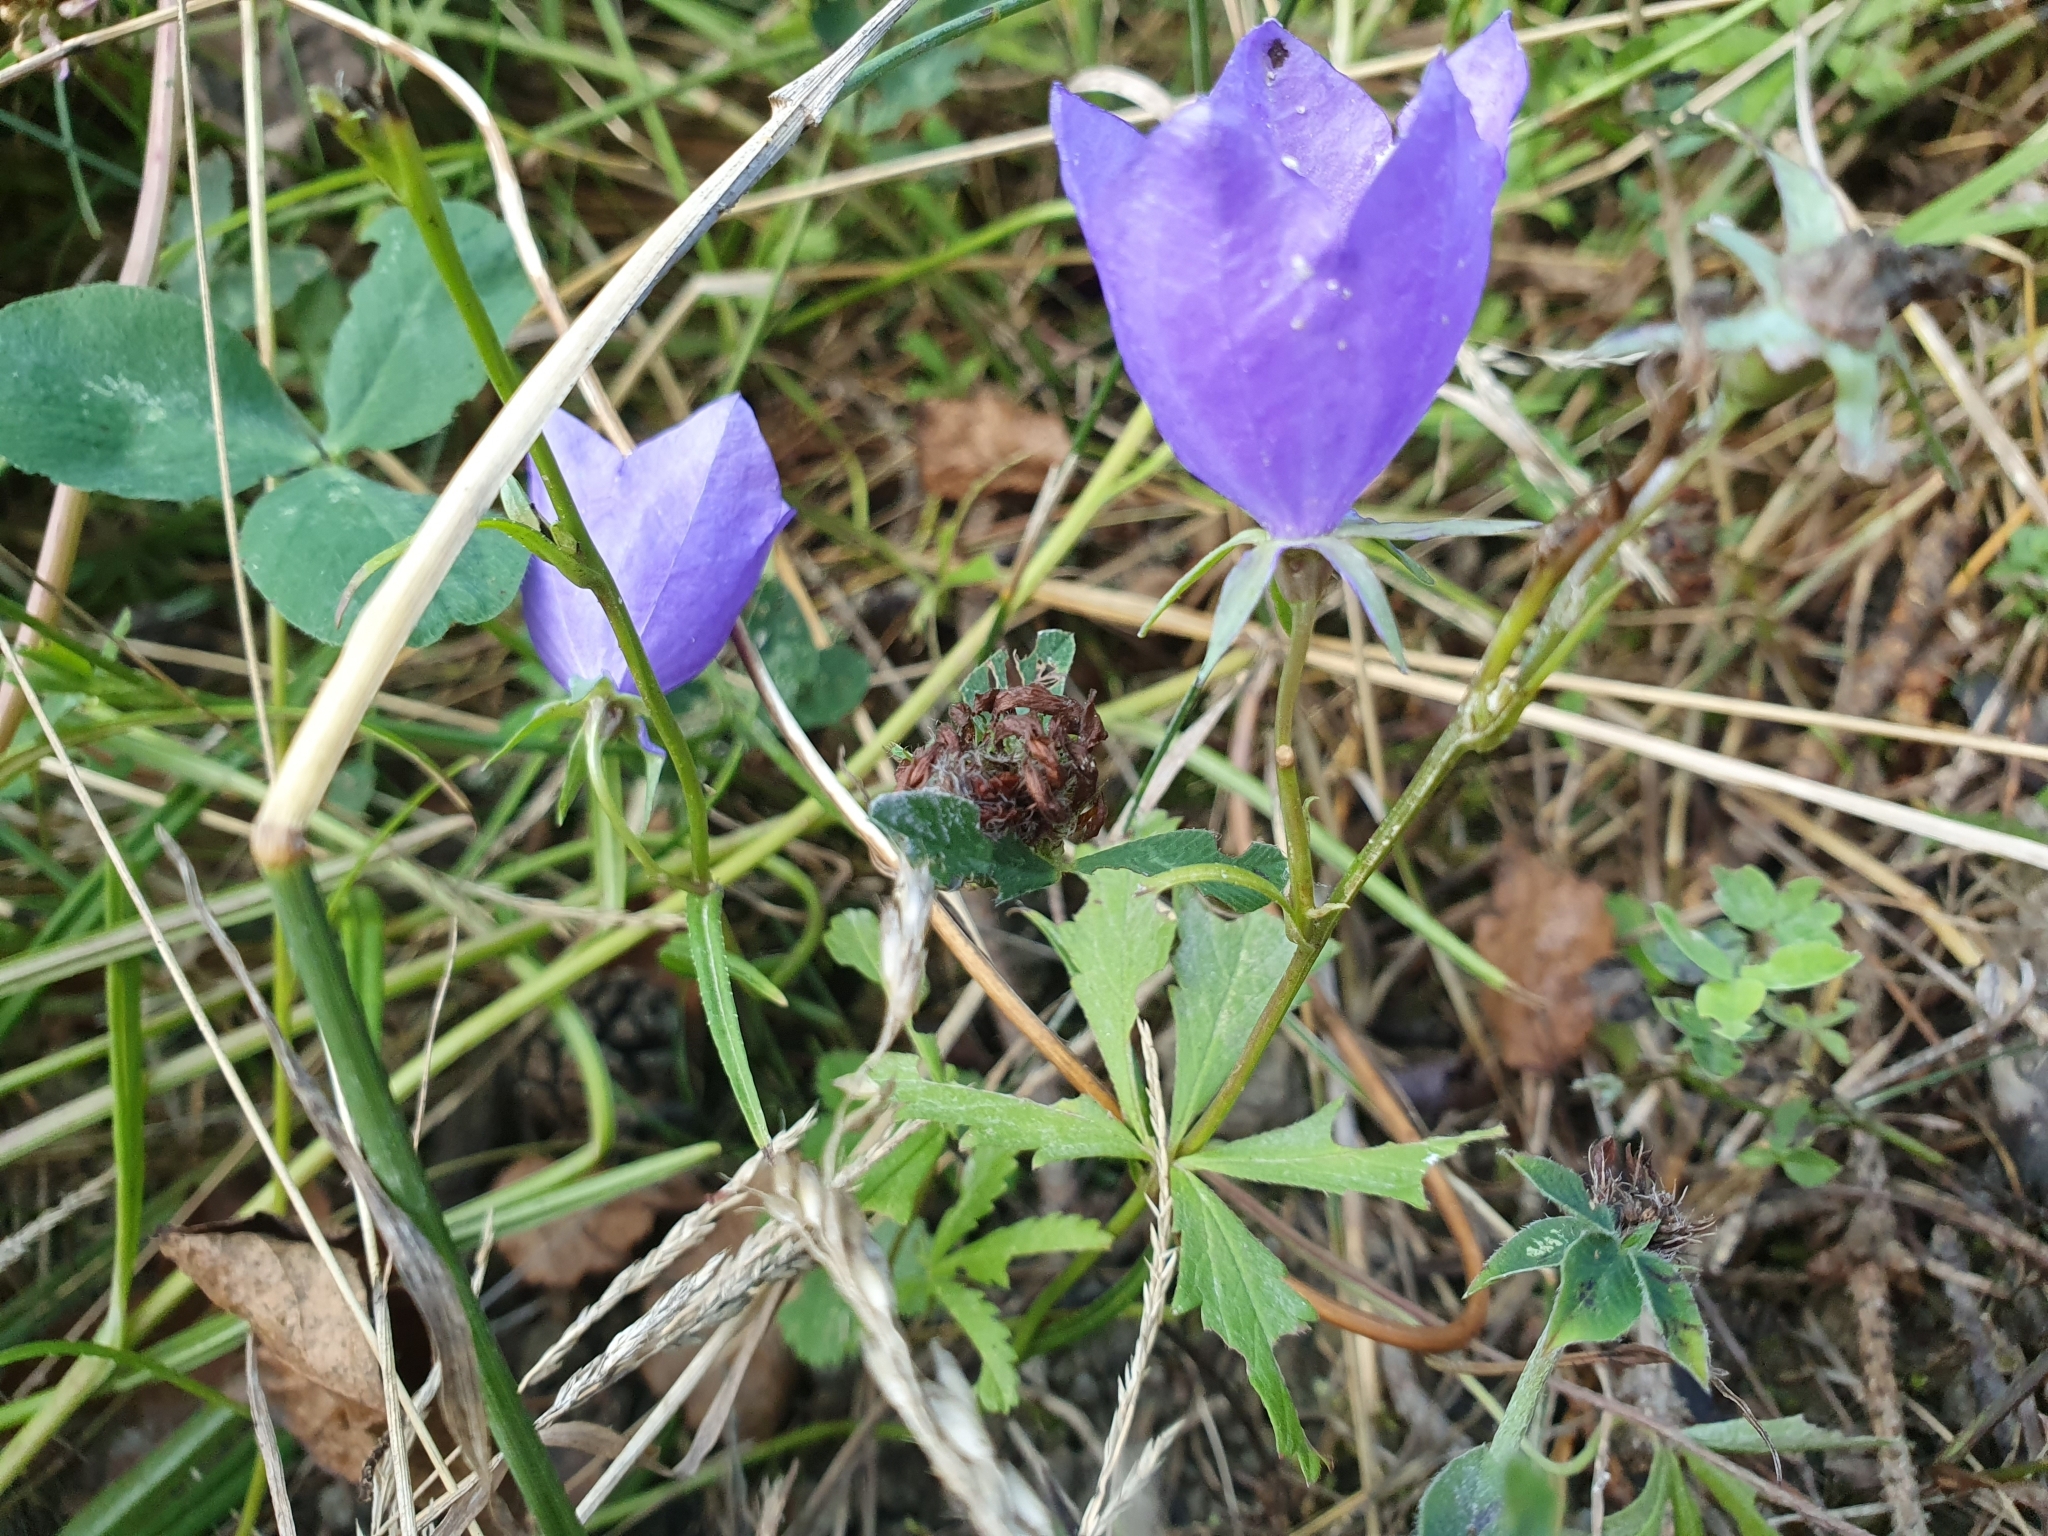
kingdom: Plantae
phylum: Tracheophyta
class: Magnoliopsida
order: Asterales
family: Campanulaceae
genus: Campanula
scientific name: Campanula persicifolia
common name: Peach-leaved bellflower
